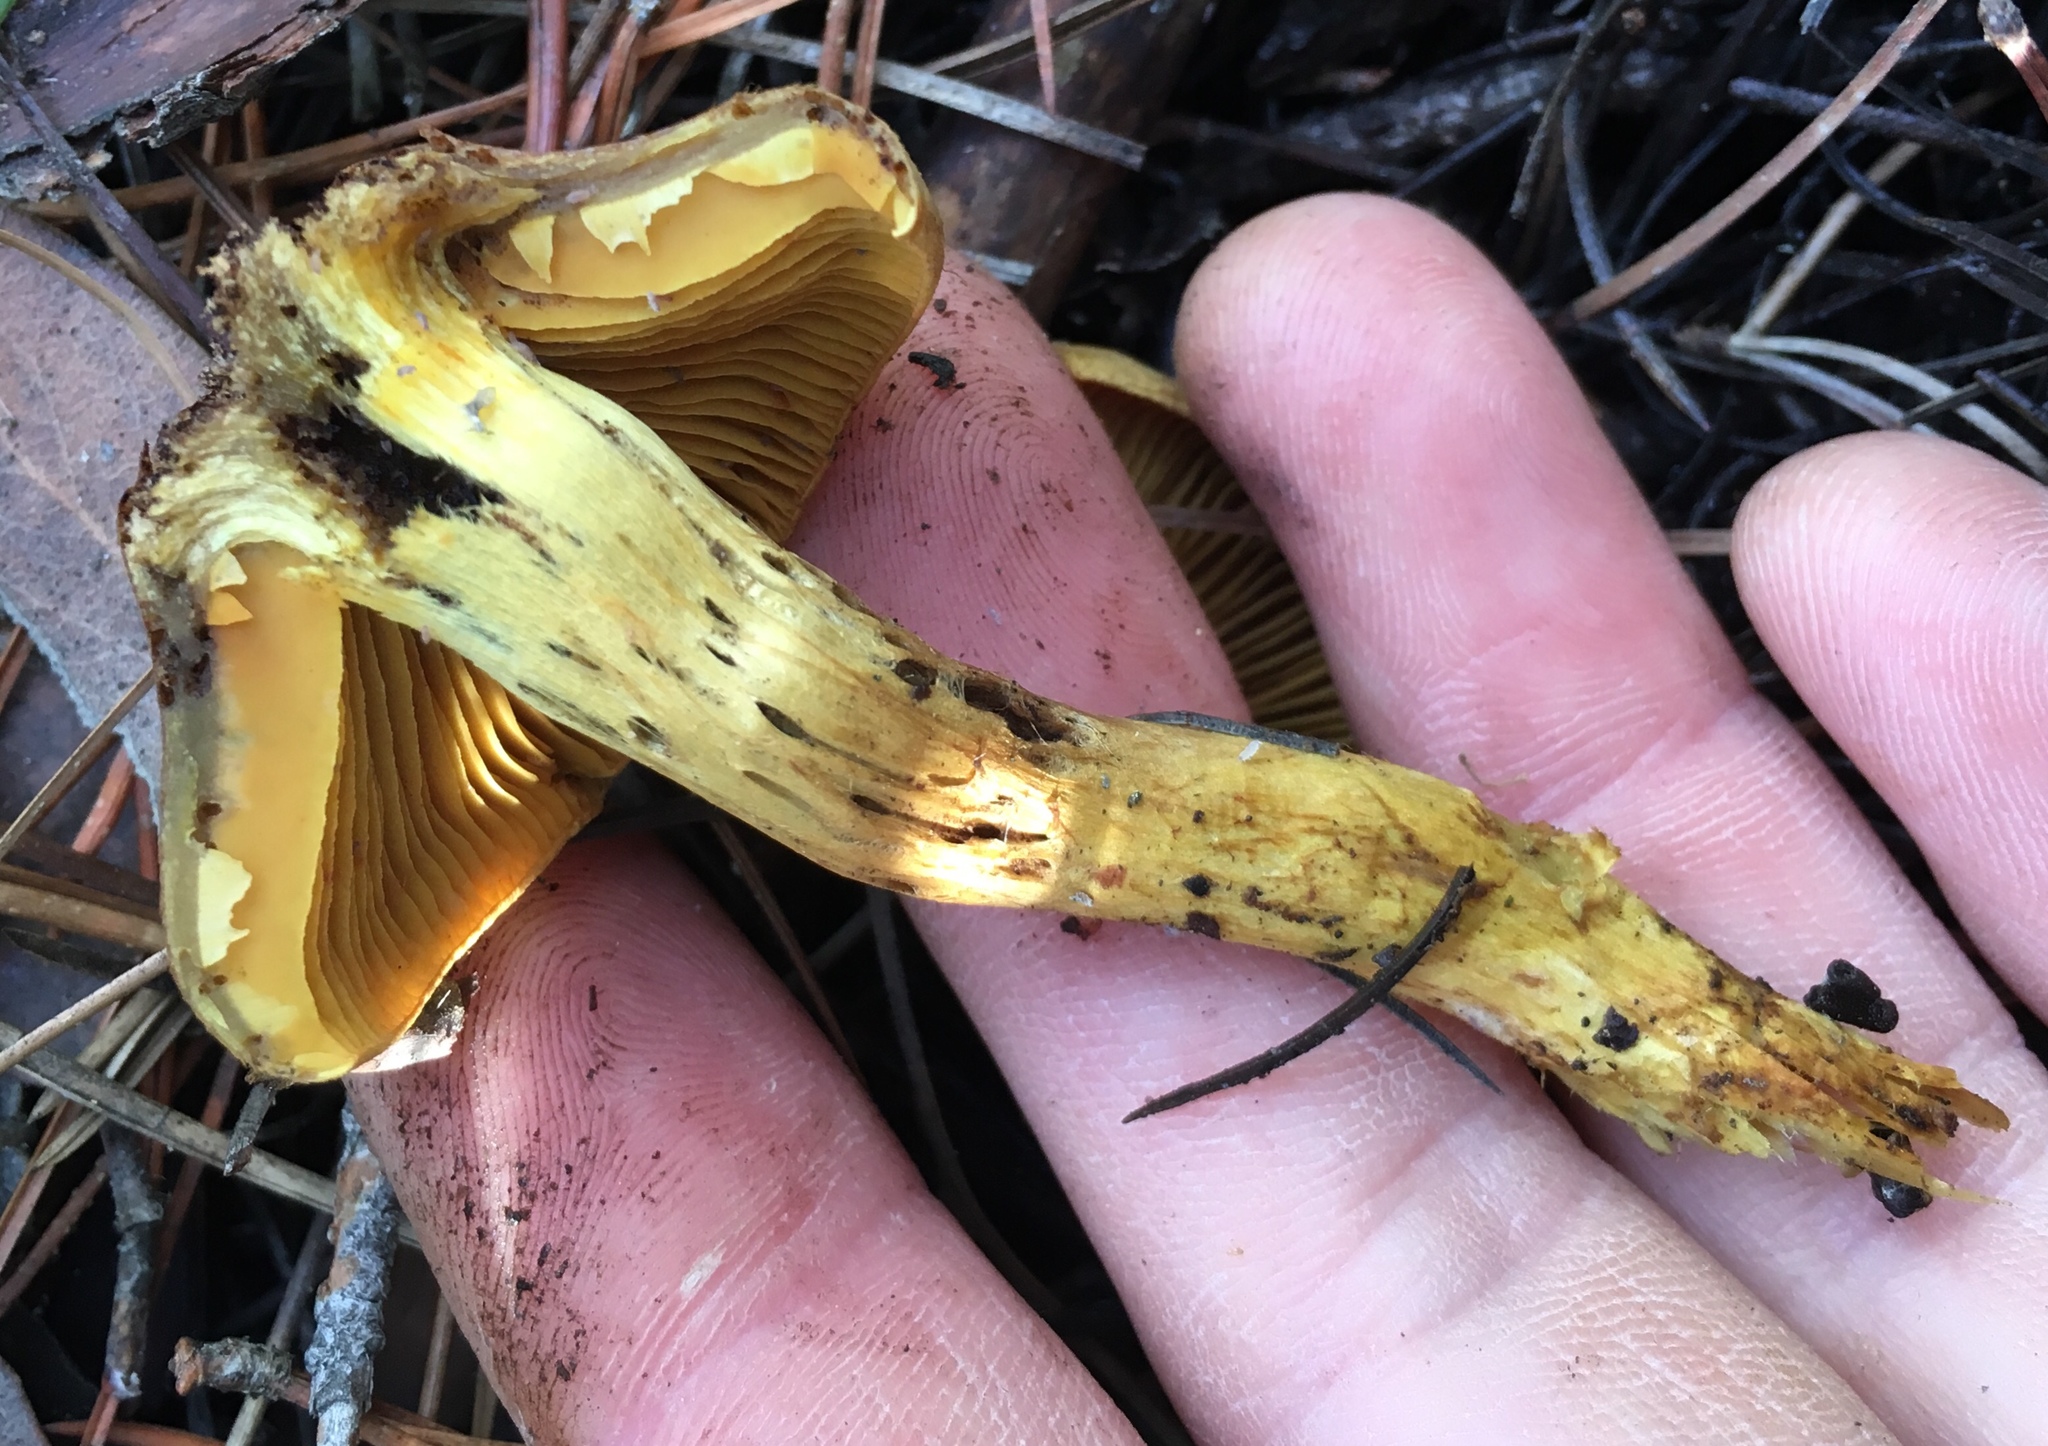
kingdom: Fungi
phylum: Basidiomycota
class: Agaricomycetes
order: Agaricales
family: Cortinariaceae
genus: Cortinarius
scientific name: Cortinarius thiersii
